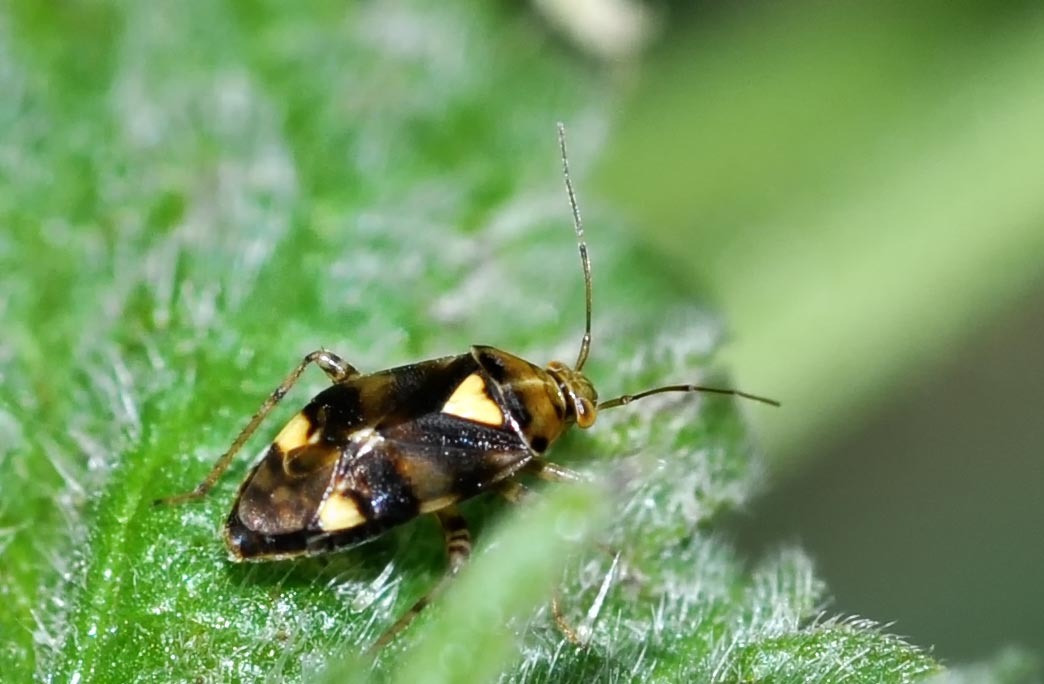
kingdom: Animalia
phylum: Arthropoda
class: Insecta
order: Hemiptera
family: Miridae
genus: Liocoris
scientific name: Liocoris tripustulatus
